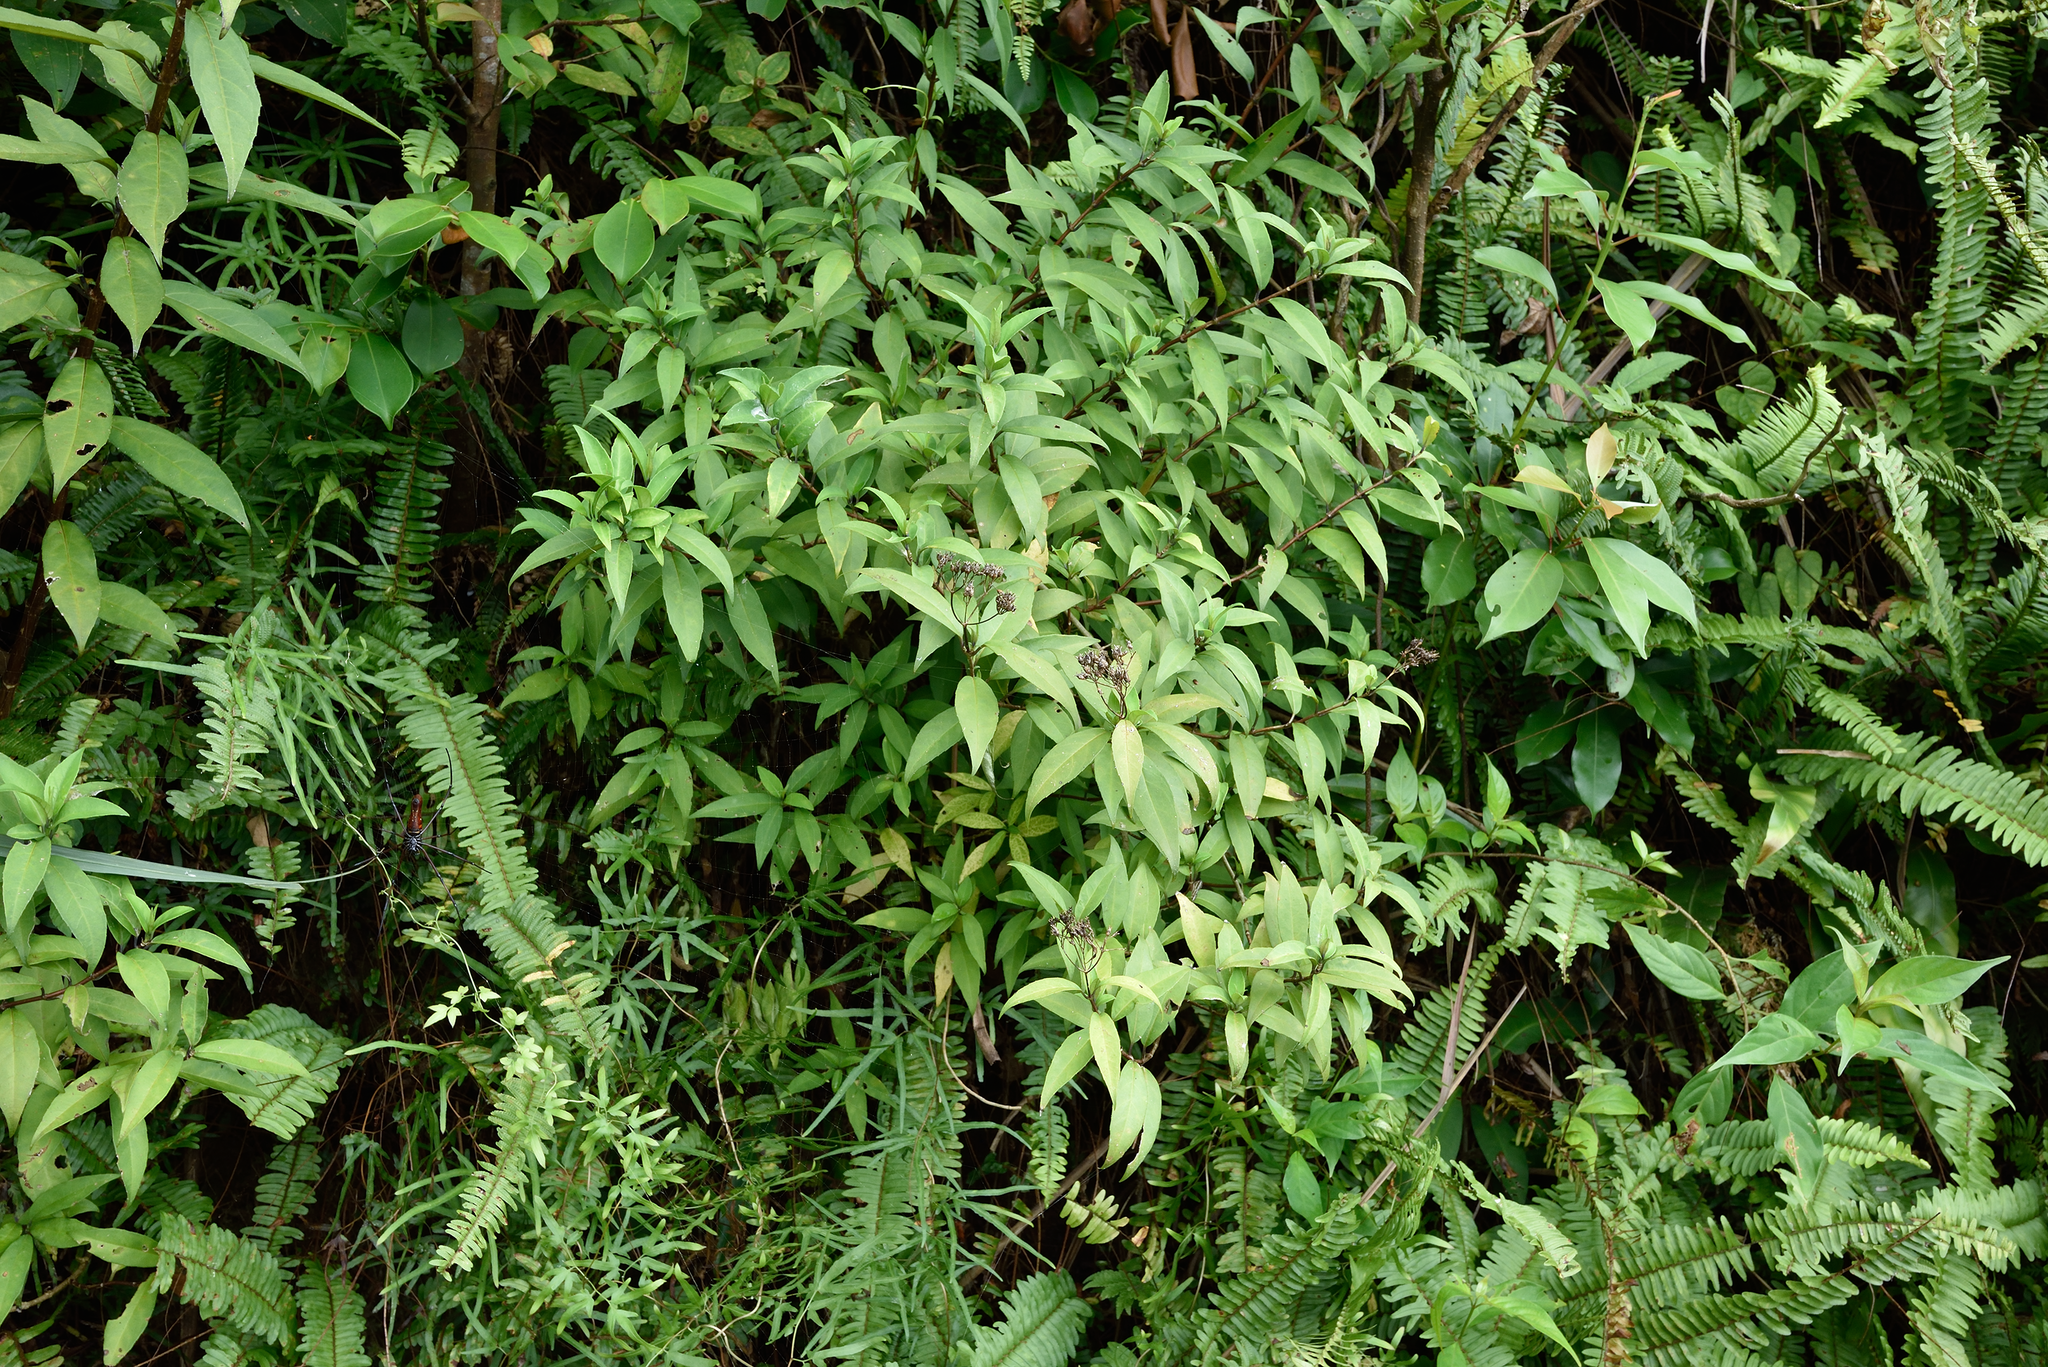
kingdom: Plantae
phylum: Tracheophyta
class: Magnoliopsida
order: Cornales
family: Hydrangeaceae
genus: Hydrangea
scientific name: Hydrangea chinensis
